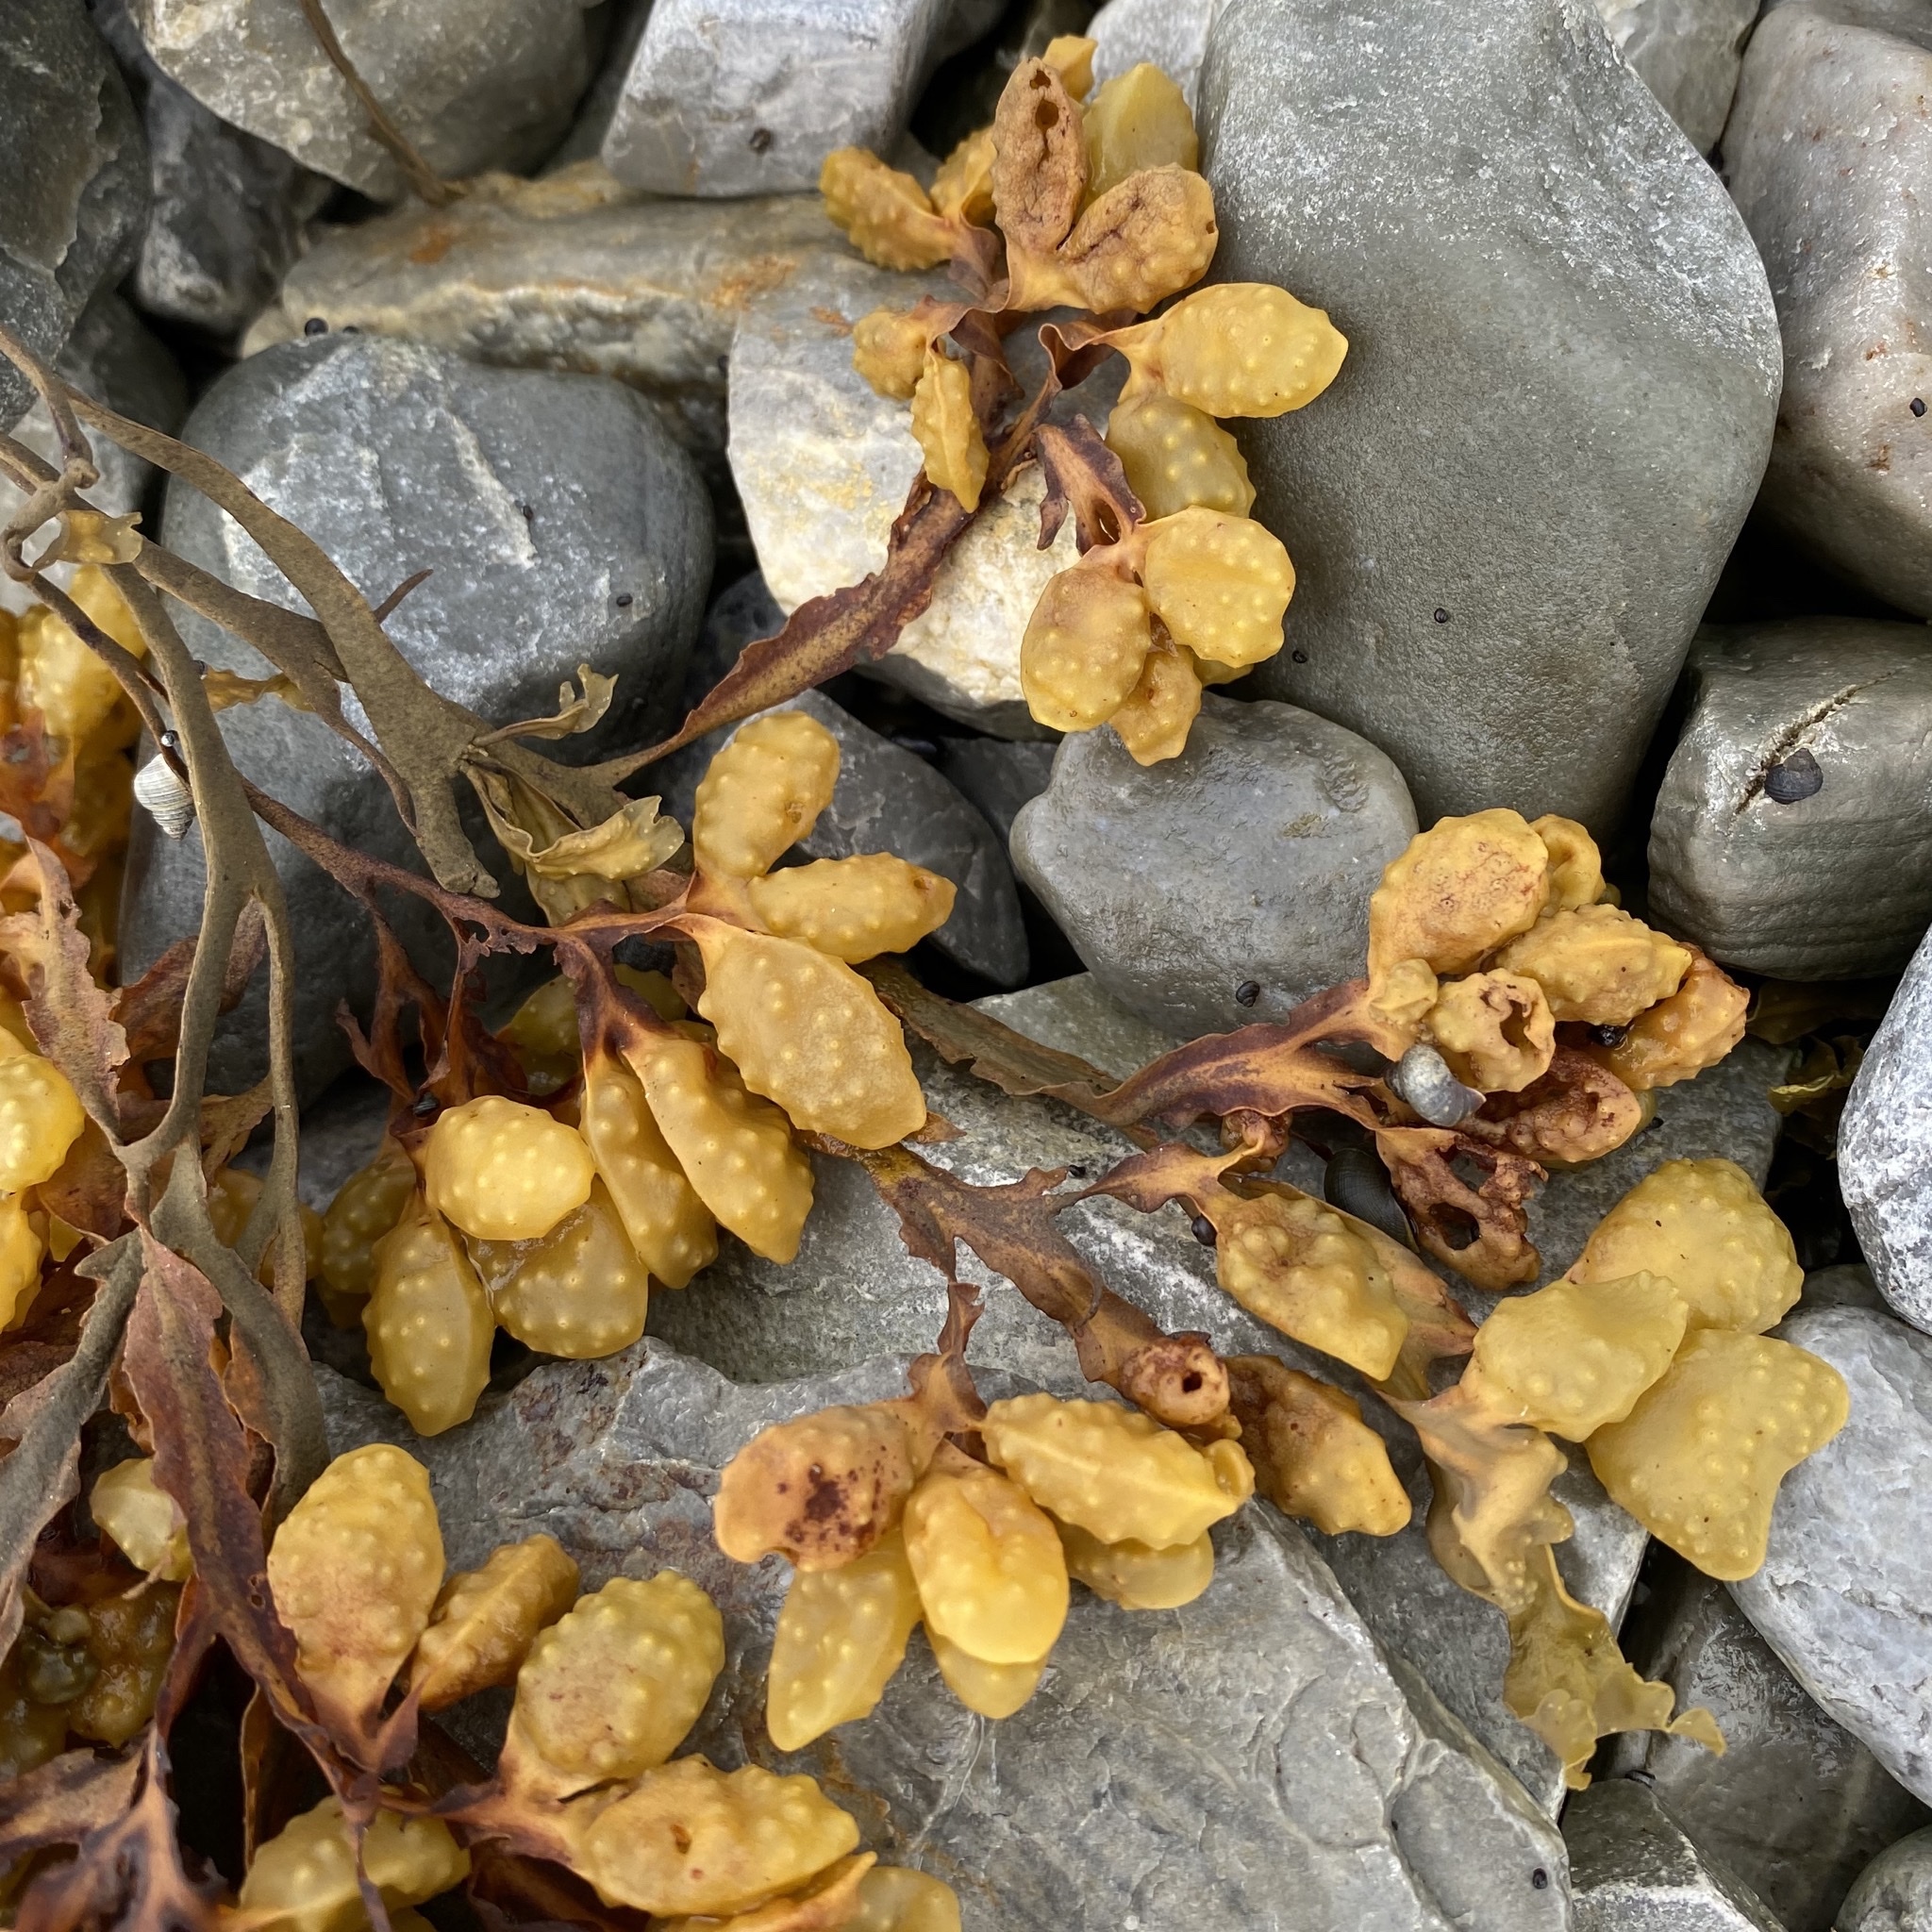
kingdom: Chromista
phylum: Ochrophyta
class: Phaeophyceae
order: Fucales
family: Fucaceae
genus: Fucus
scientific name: Fucus spiralis
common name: Spiral wrack
